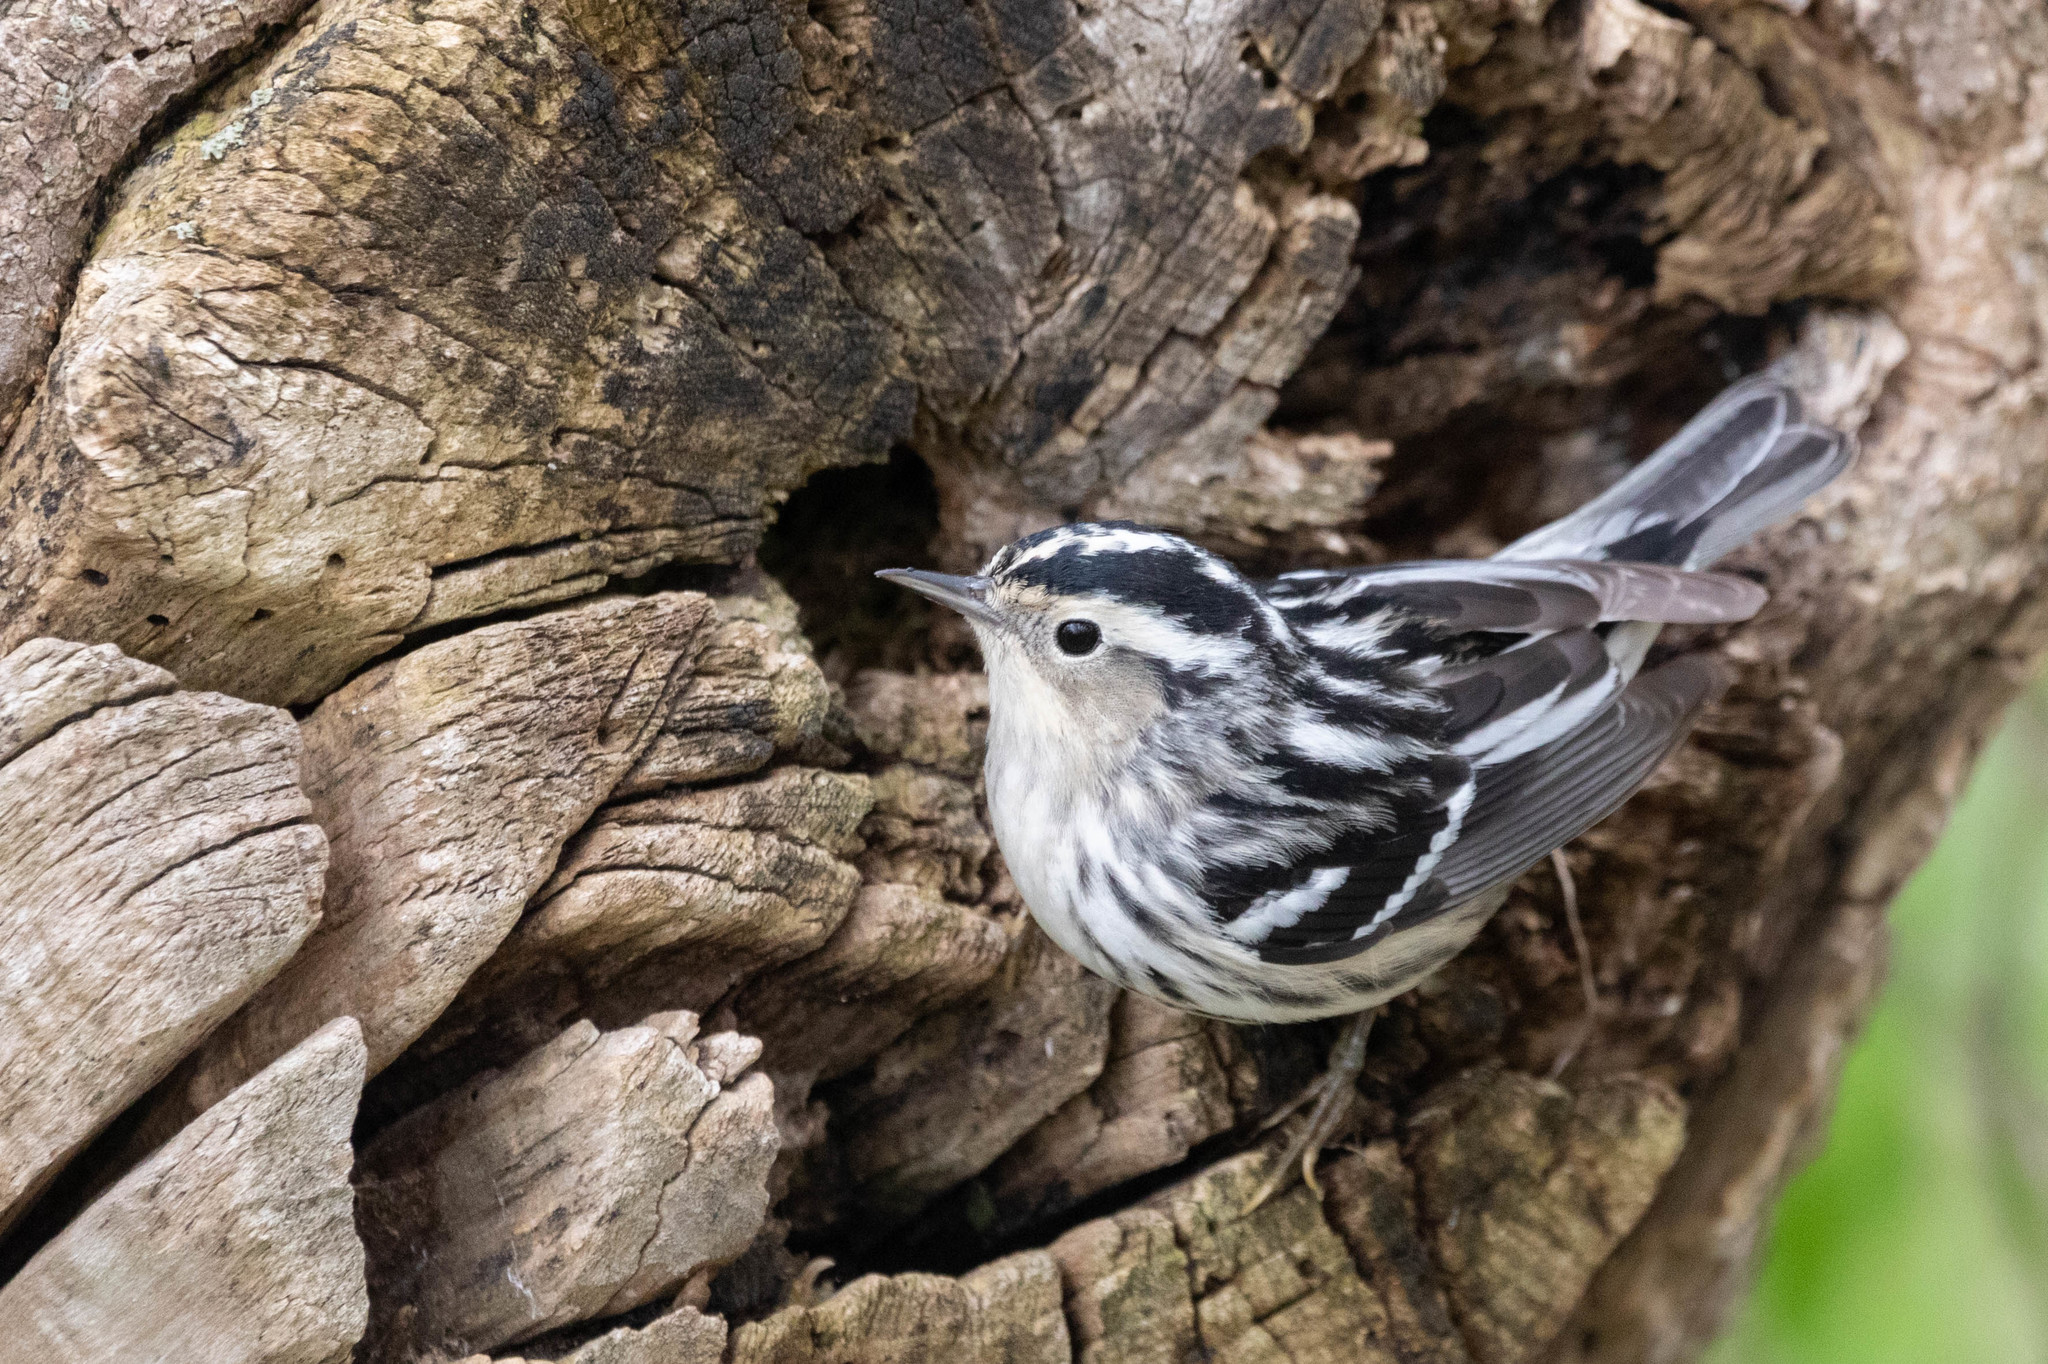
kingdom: Animalia
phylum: Chordata
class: Aves
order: Passeriformes
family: Parulidae
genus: Mniotilta
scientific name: Mniotilta varia
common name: Black-and-white warbler
